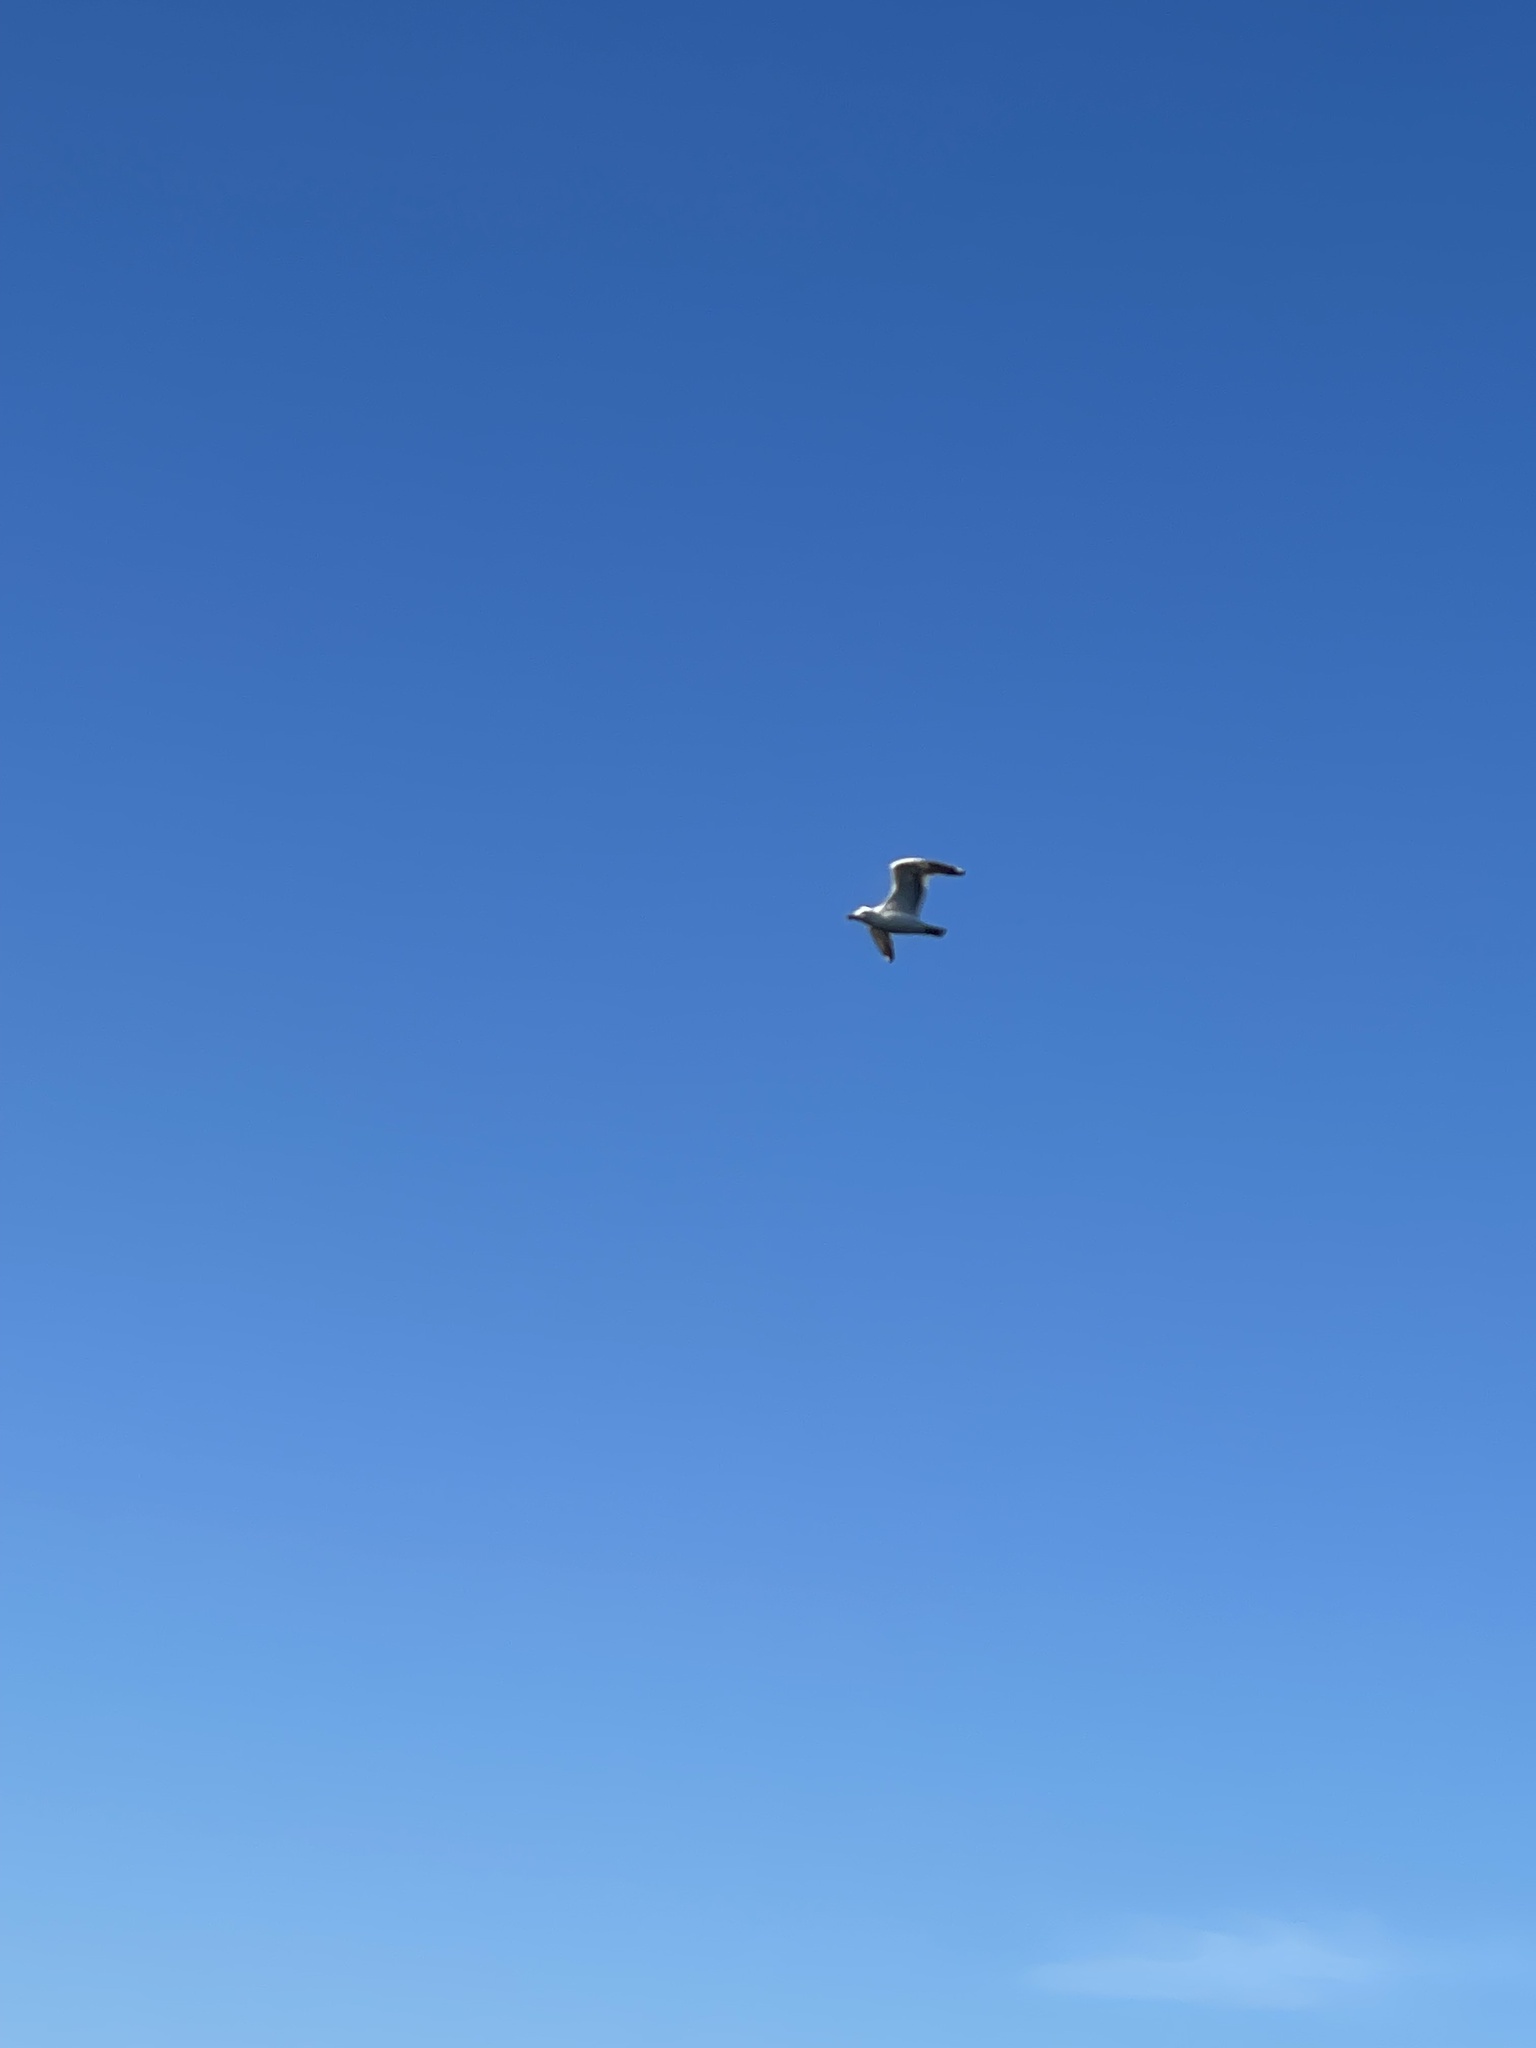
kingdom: Animalia
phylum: Chordata
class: Aves
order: Charadriiformes
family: Laridae
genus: Larus
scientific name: Larus
